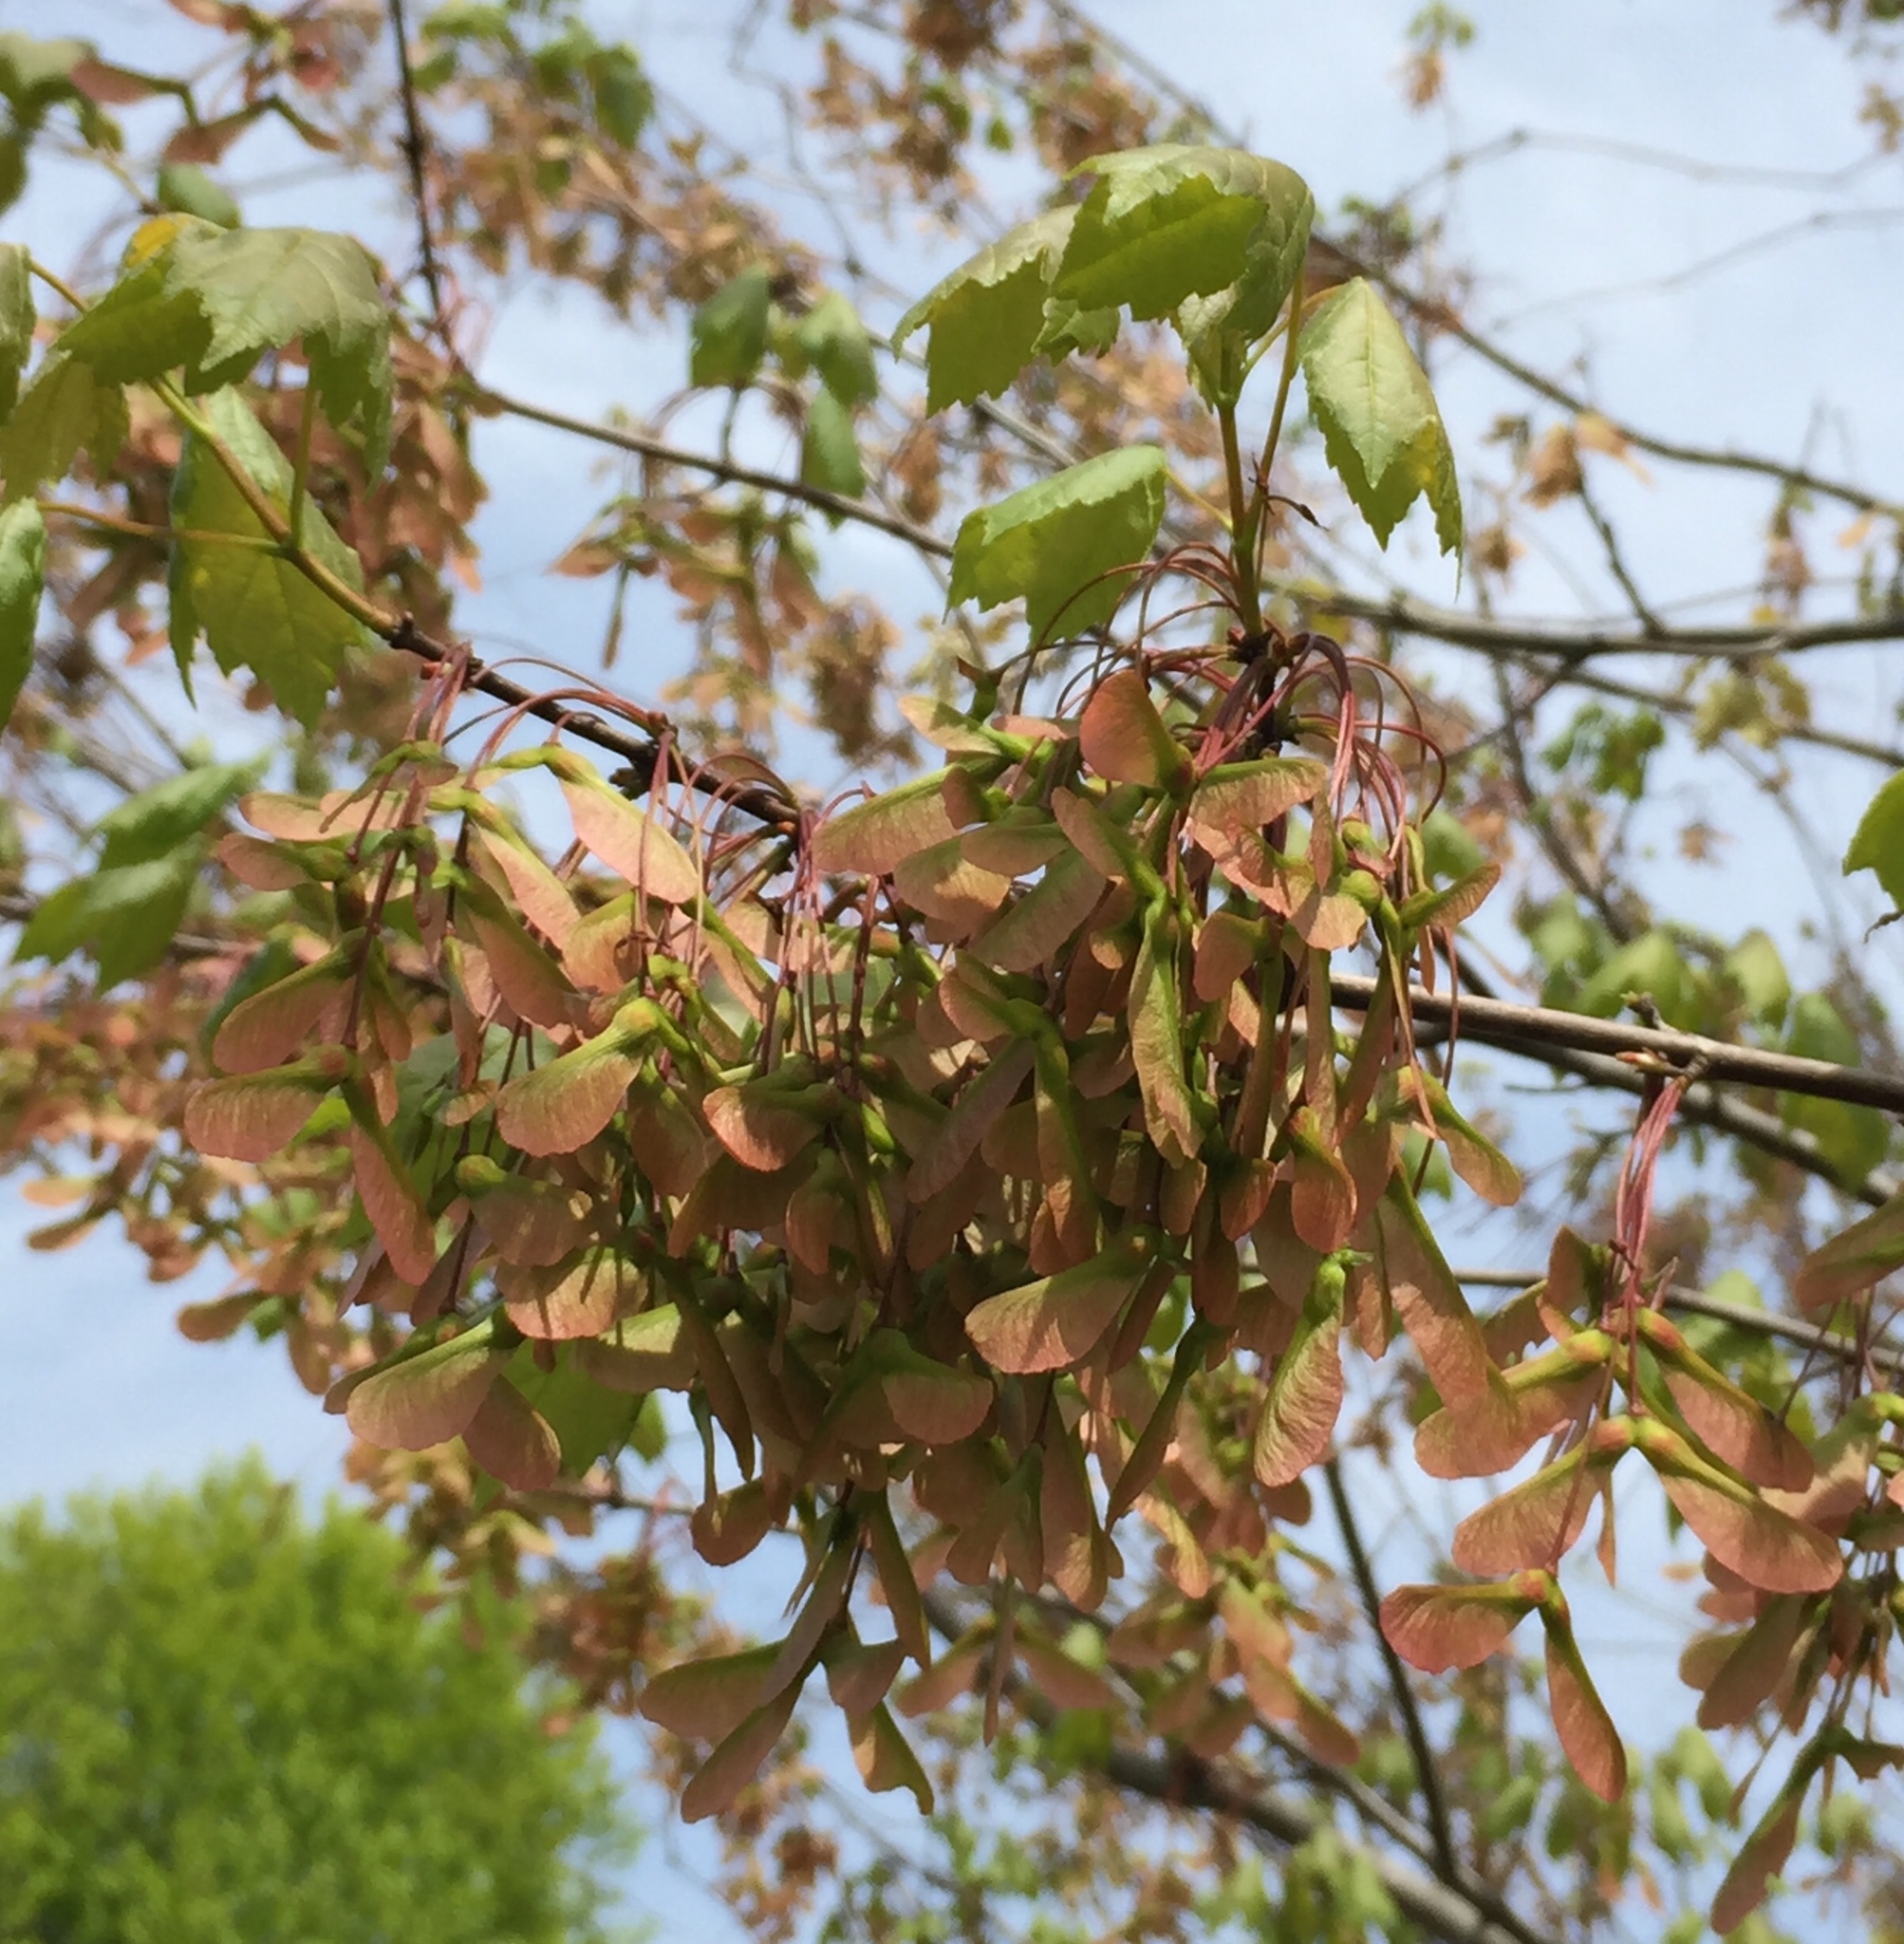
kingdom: Plantae
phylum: Tracheophyta
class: Magnoliopsida
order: Sapindales
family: Sapindaceae
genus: Acer
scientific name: Acer rubrum
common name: Red maple
